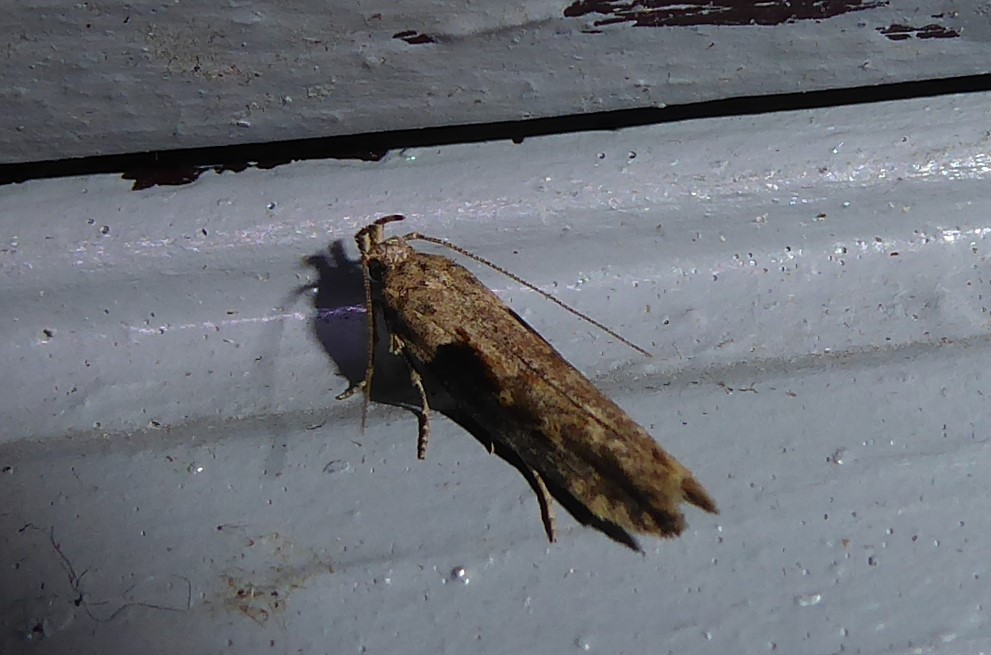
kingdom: Animalia
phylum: Arthropoda
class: Insecta
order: Lepidoptera
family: Gelechiidae
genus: Symmetrischema
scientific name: Symmetrischema tangolias
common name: Moth
